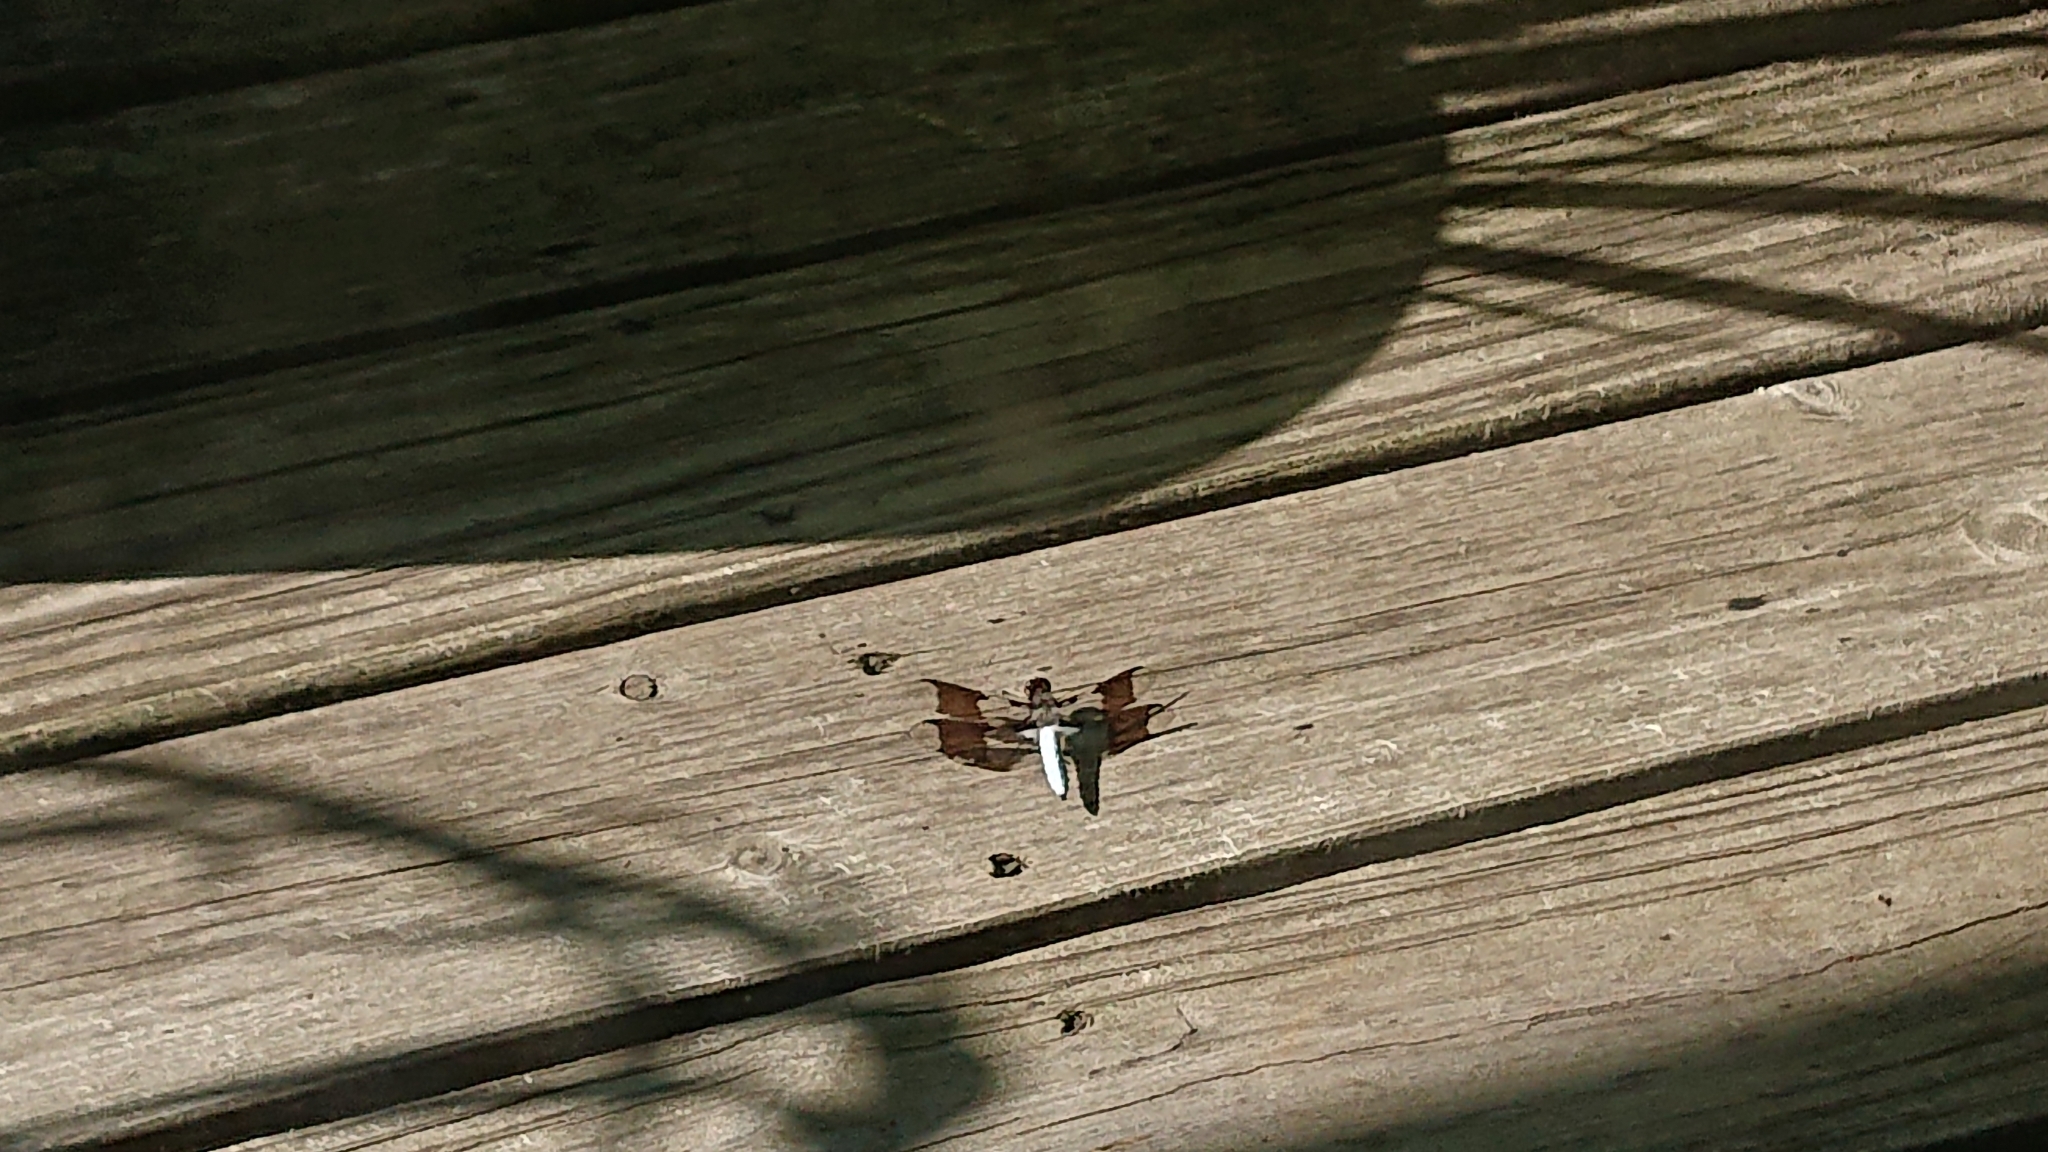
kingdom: Animalia
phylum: Arthropoda
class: Insecta
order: Odonata
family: Libellulidae
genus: Plathemis
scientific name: Plathemis lydia
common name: Common whitetail
